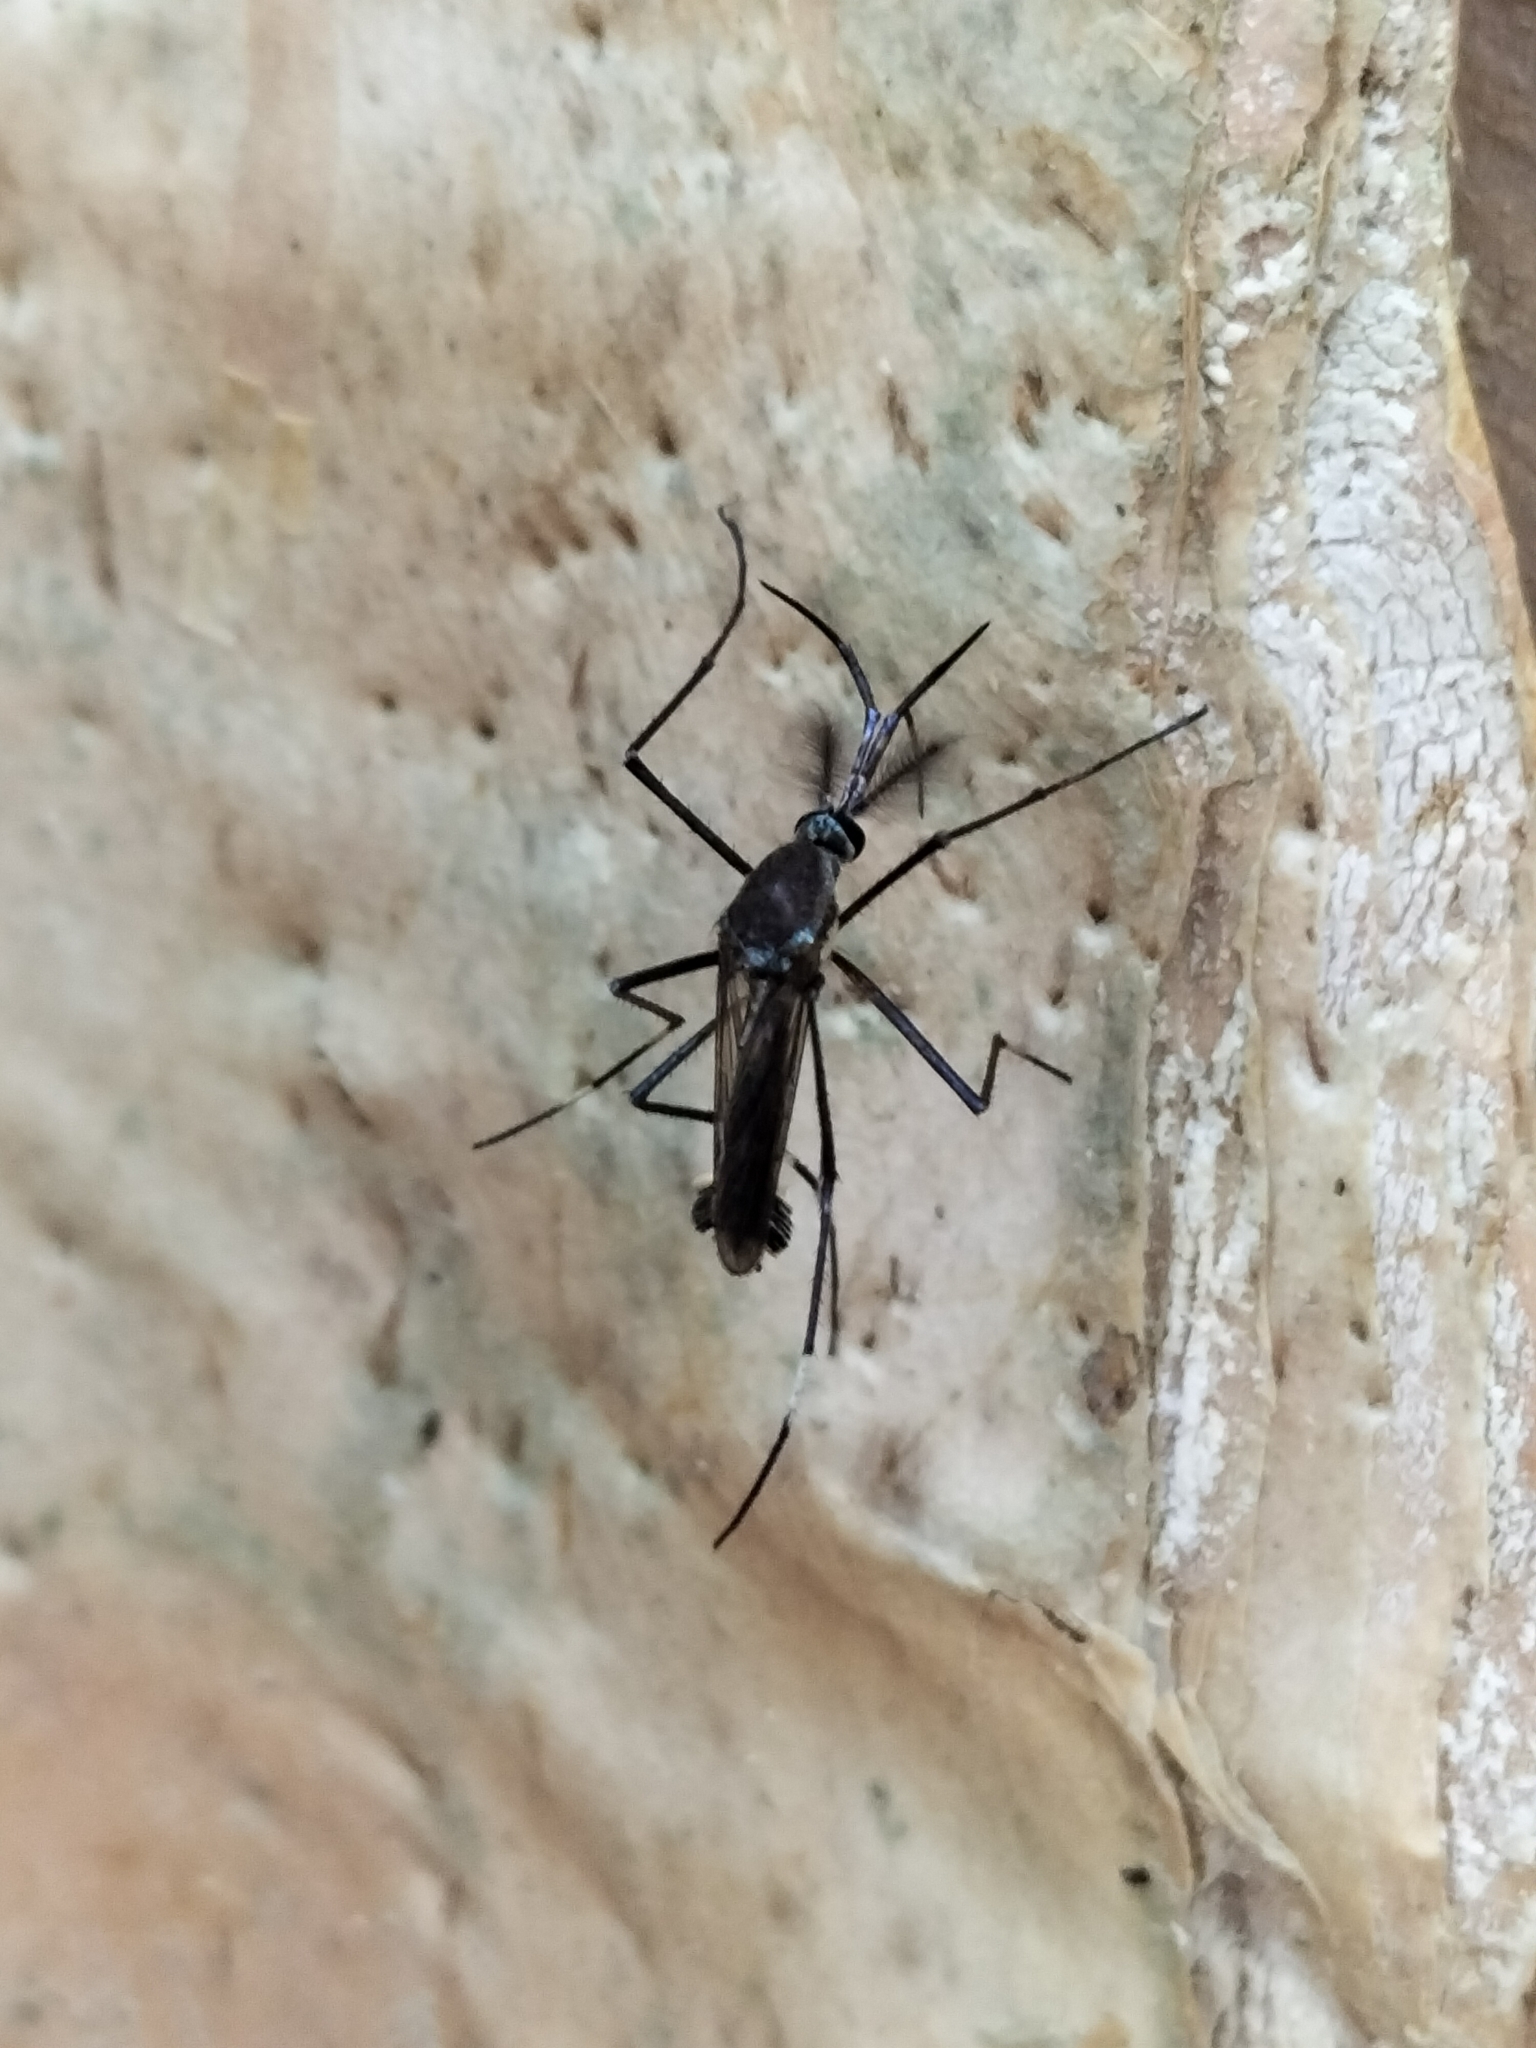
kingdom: Animalia
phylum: Arthropoda
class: Insecta
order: Diptera
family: Culicidae
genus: Toxorhynchites
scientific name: Toxorhynchites speciosus
